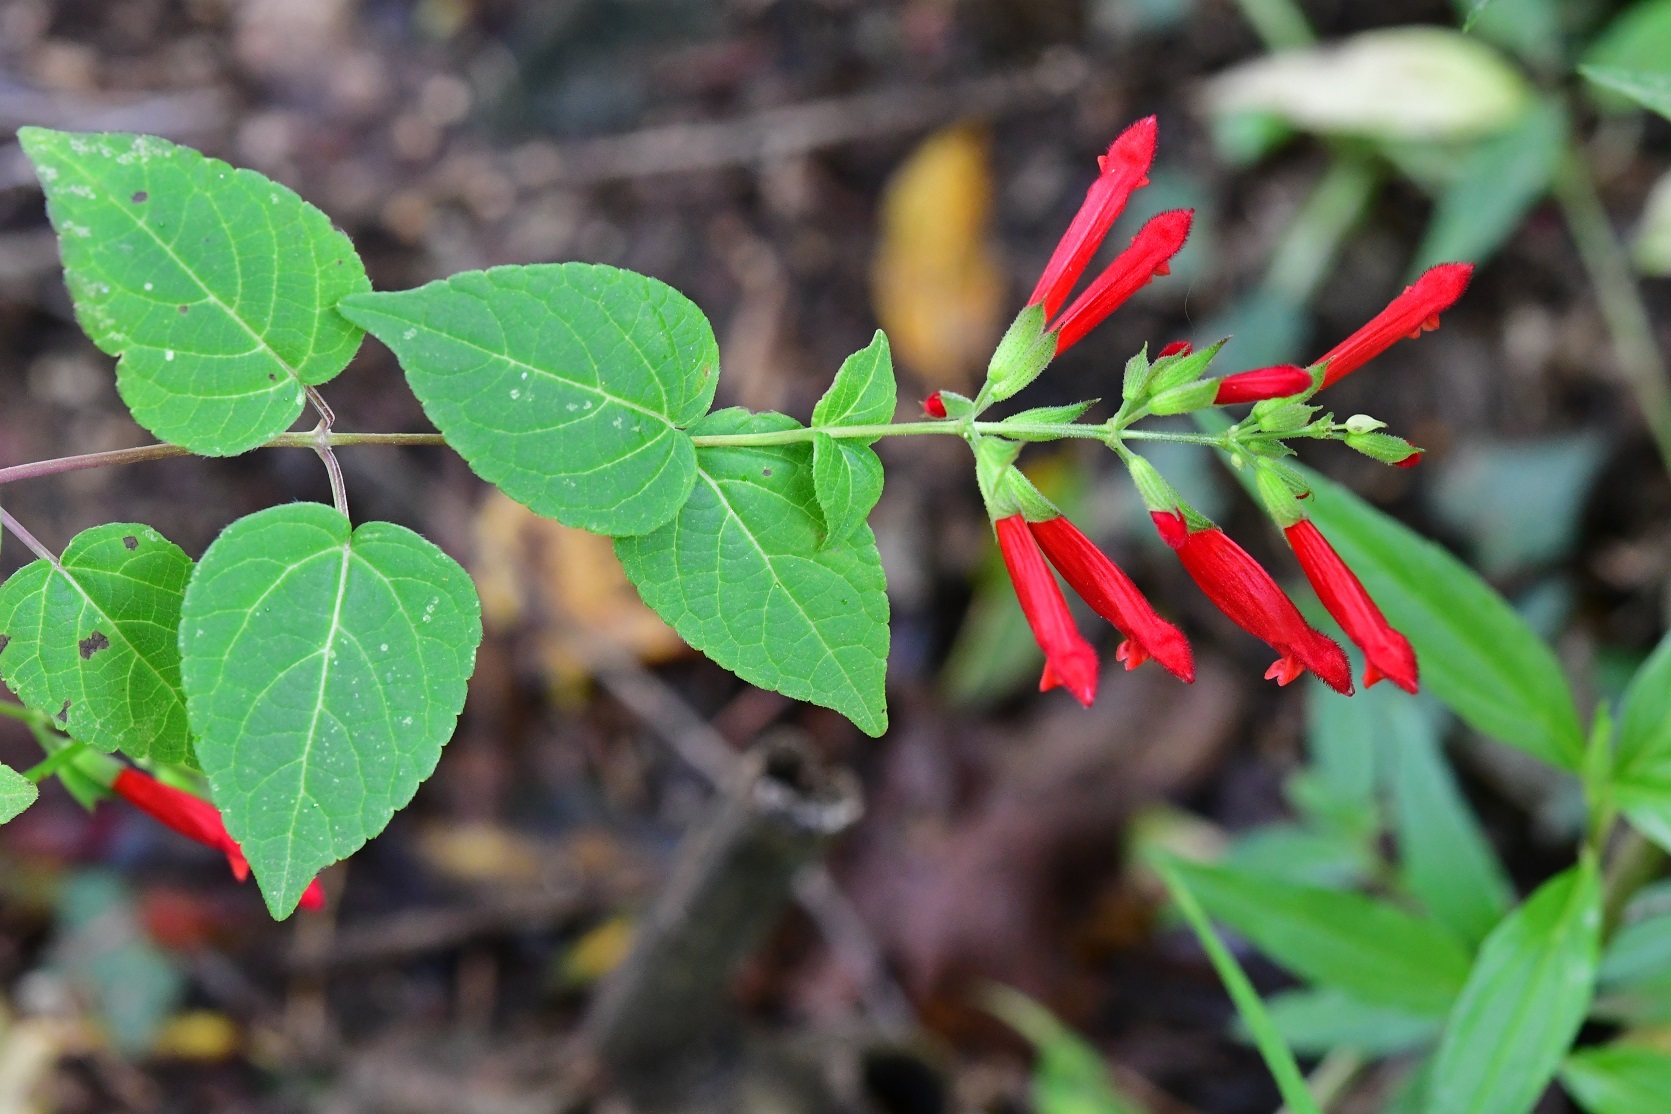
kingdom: Plantae
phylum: Tracheophyta
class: Magnoliopsida
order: Lamiales
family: Lamiaceae
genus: Salvia
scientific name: Salvia holwayi
